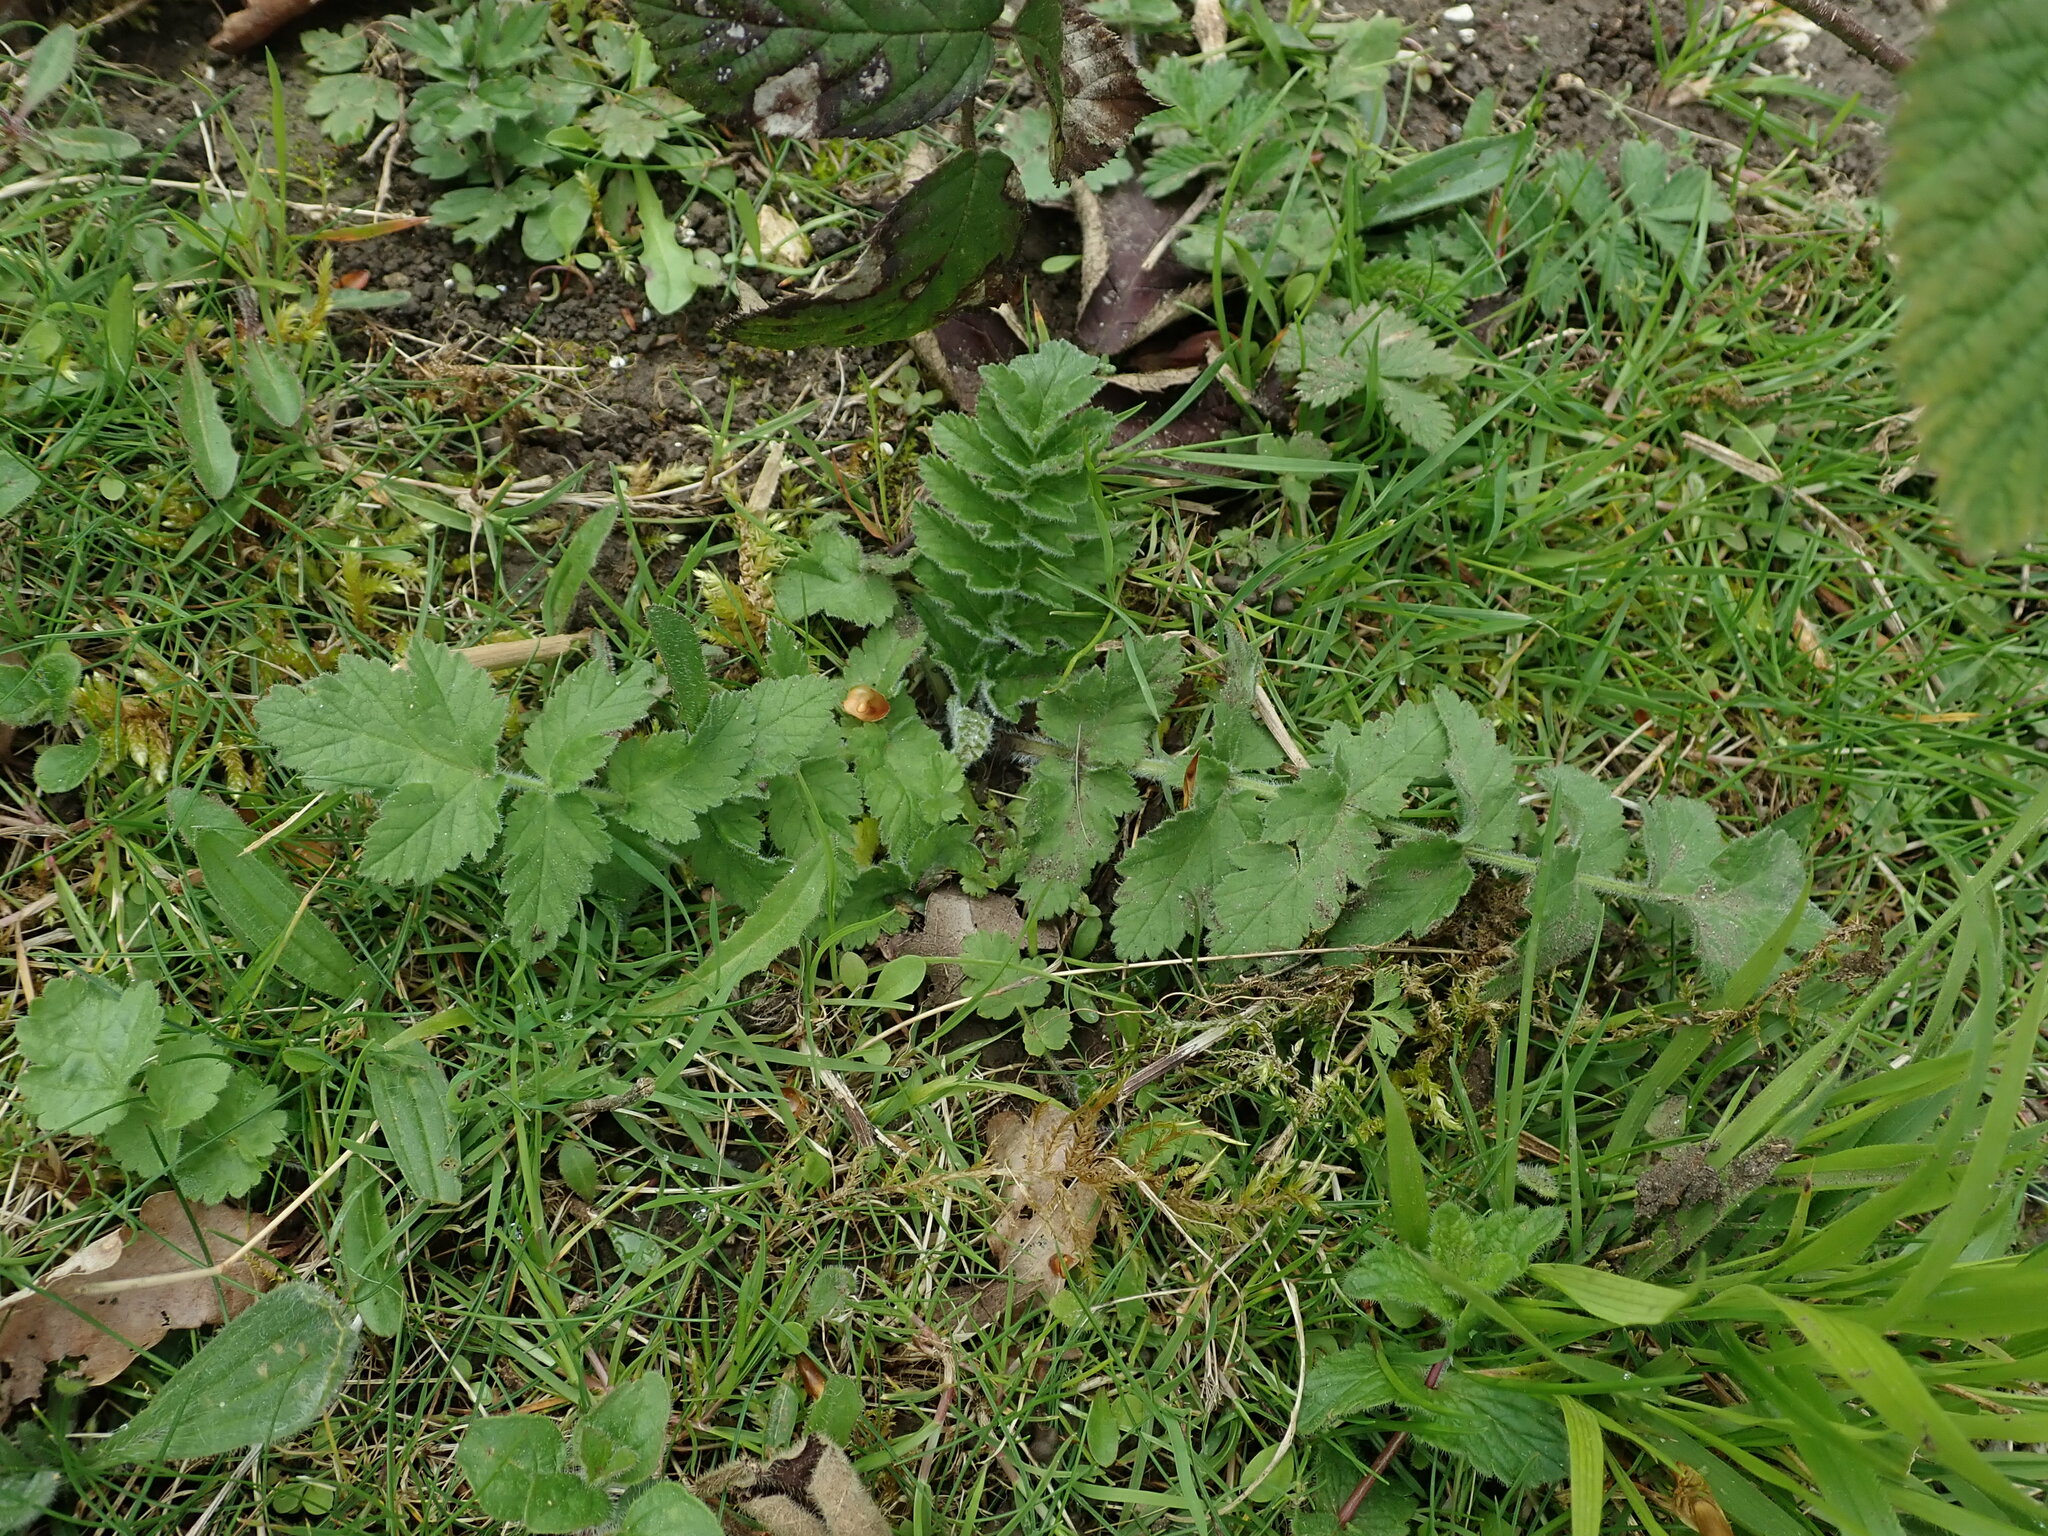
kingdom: Plantae
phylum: Tracheophyta
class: Magnoliopsida
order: Apiales
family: Apiaceae
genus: Pastinaca
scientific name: Pastinaca sativa
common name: Wild parsnip
